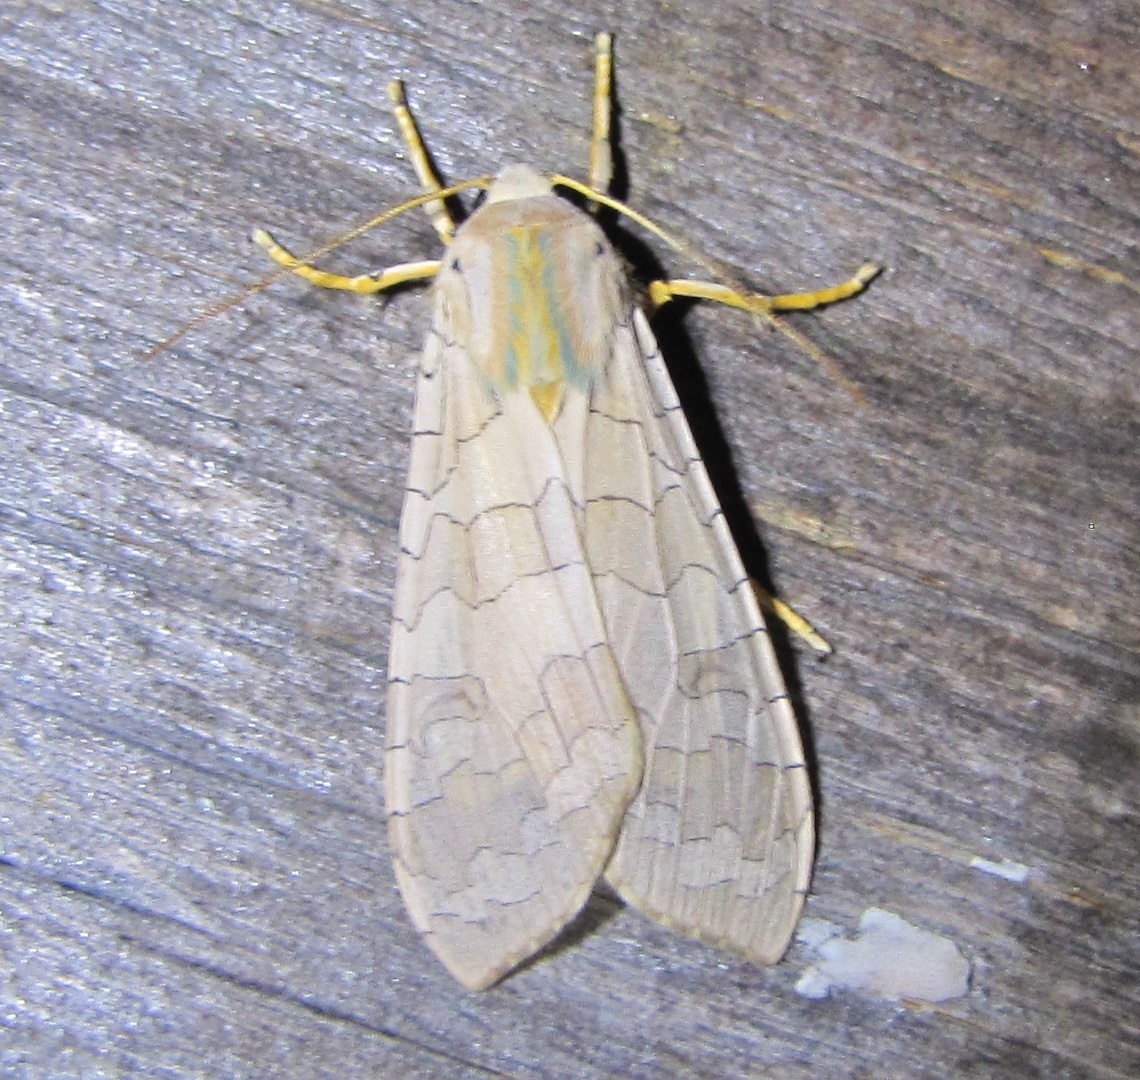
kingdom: Animalia
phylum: Arthropoda
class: Insecta
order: Lepidoptera
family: Erebidae
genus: Halysidota
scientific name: Halysidota
